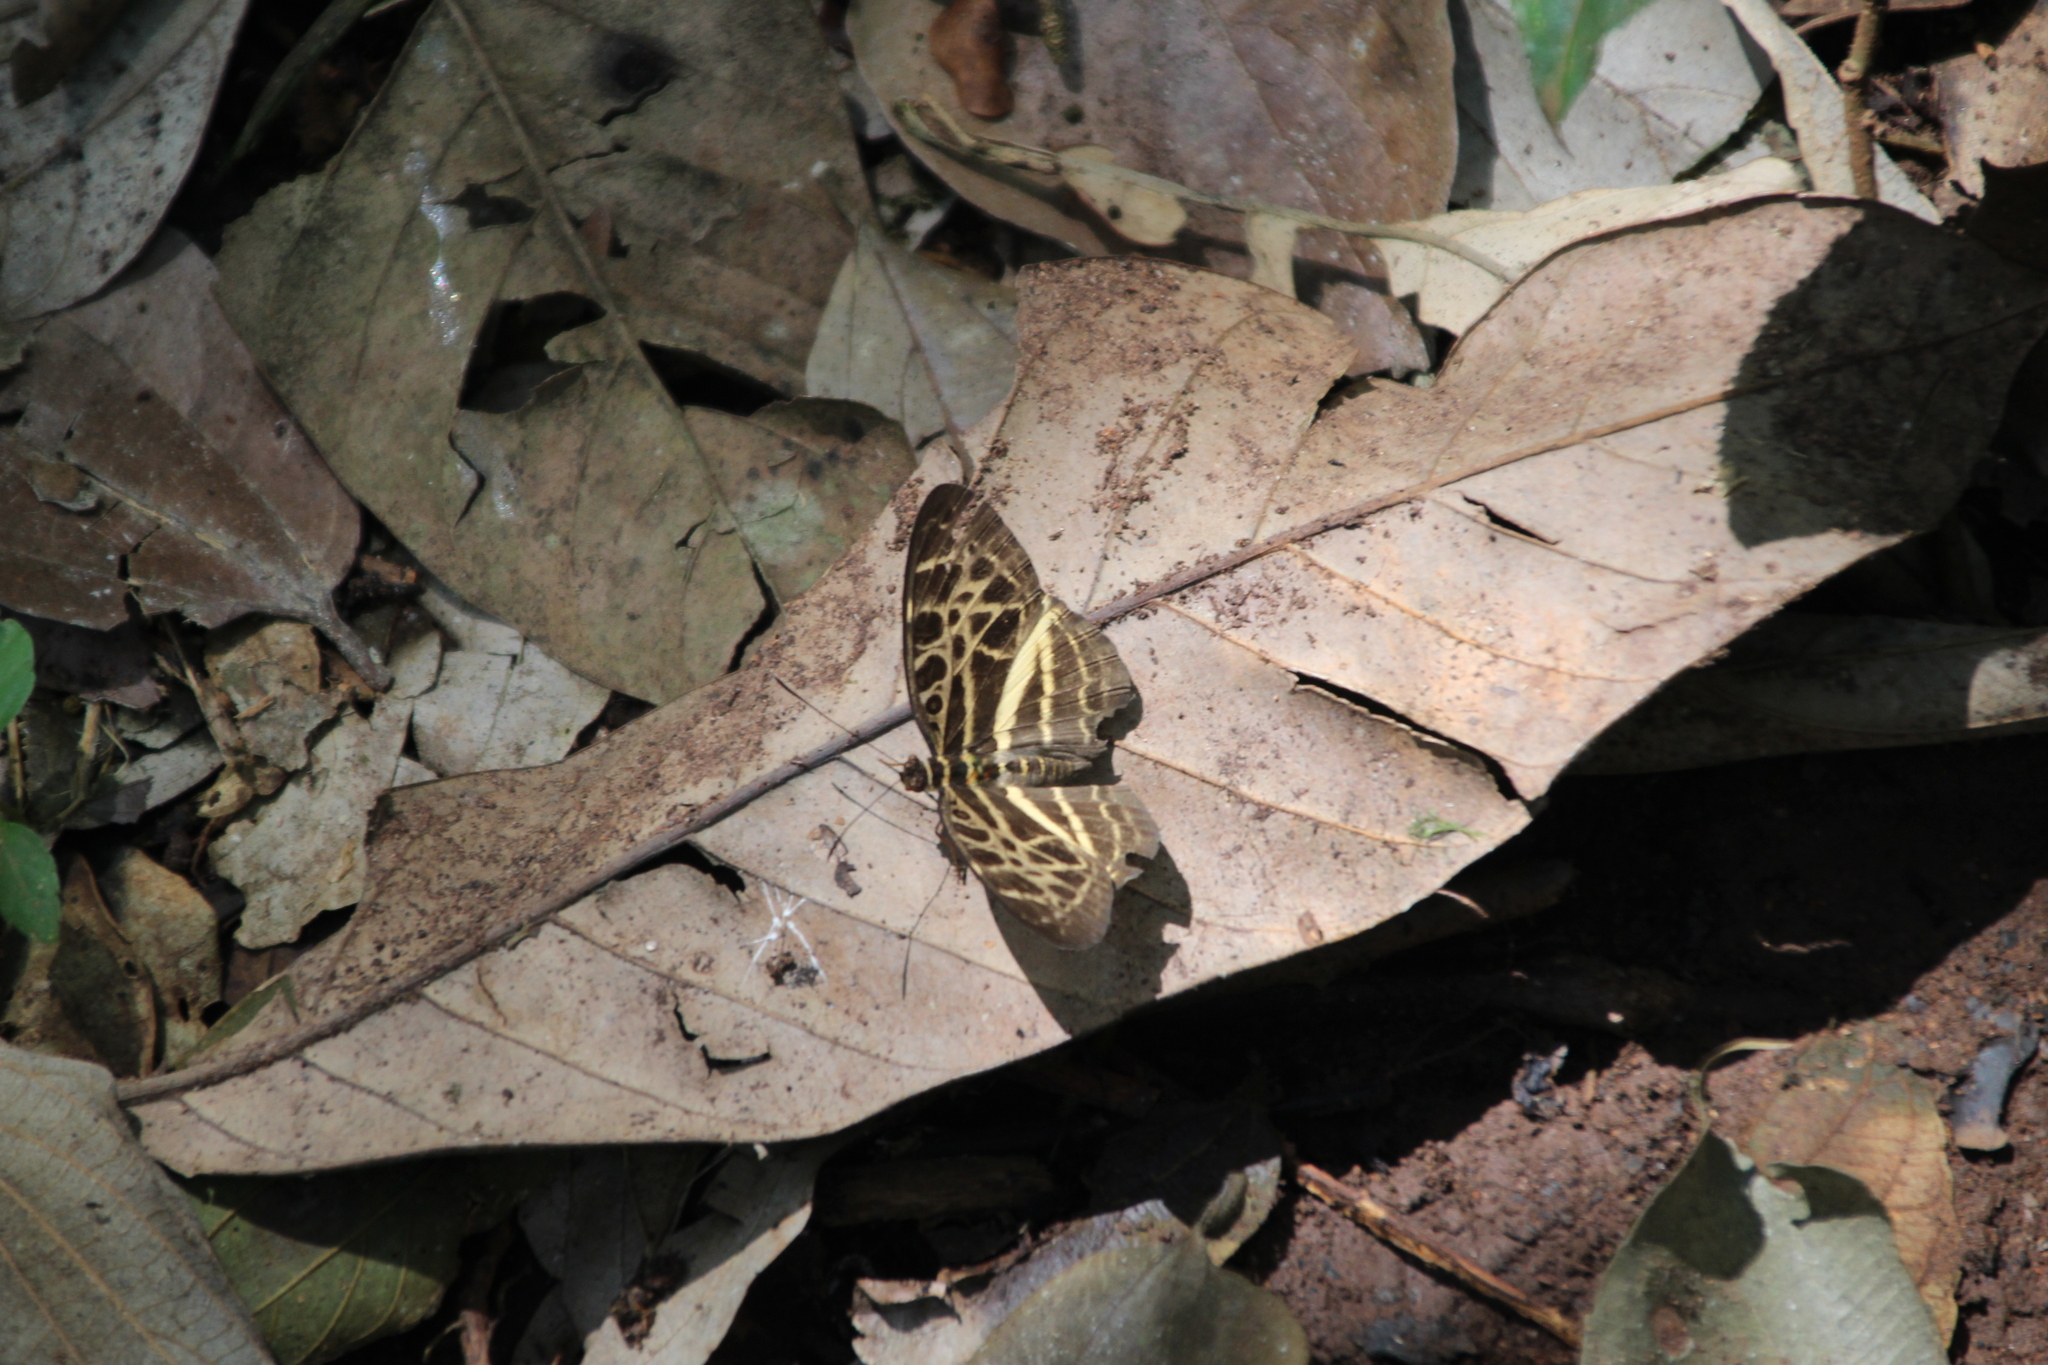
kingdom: Animalia
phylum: Arthropoda
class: Insecta
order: Lepidoptera
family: Nymphalidae
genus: Catuna
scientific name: Catuna
